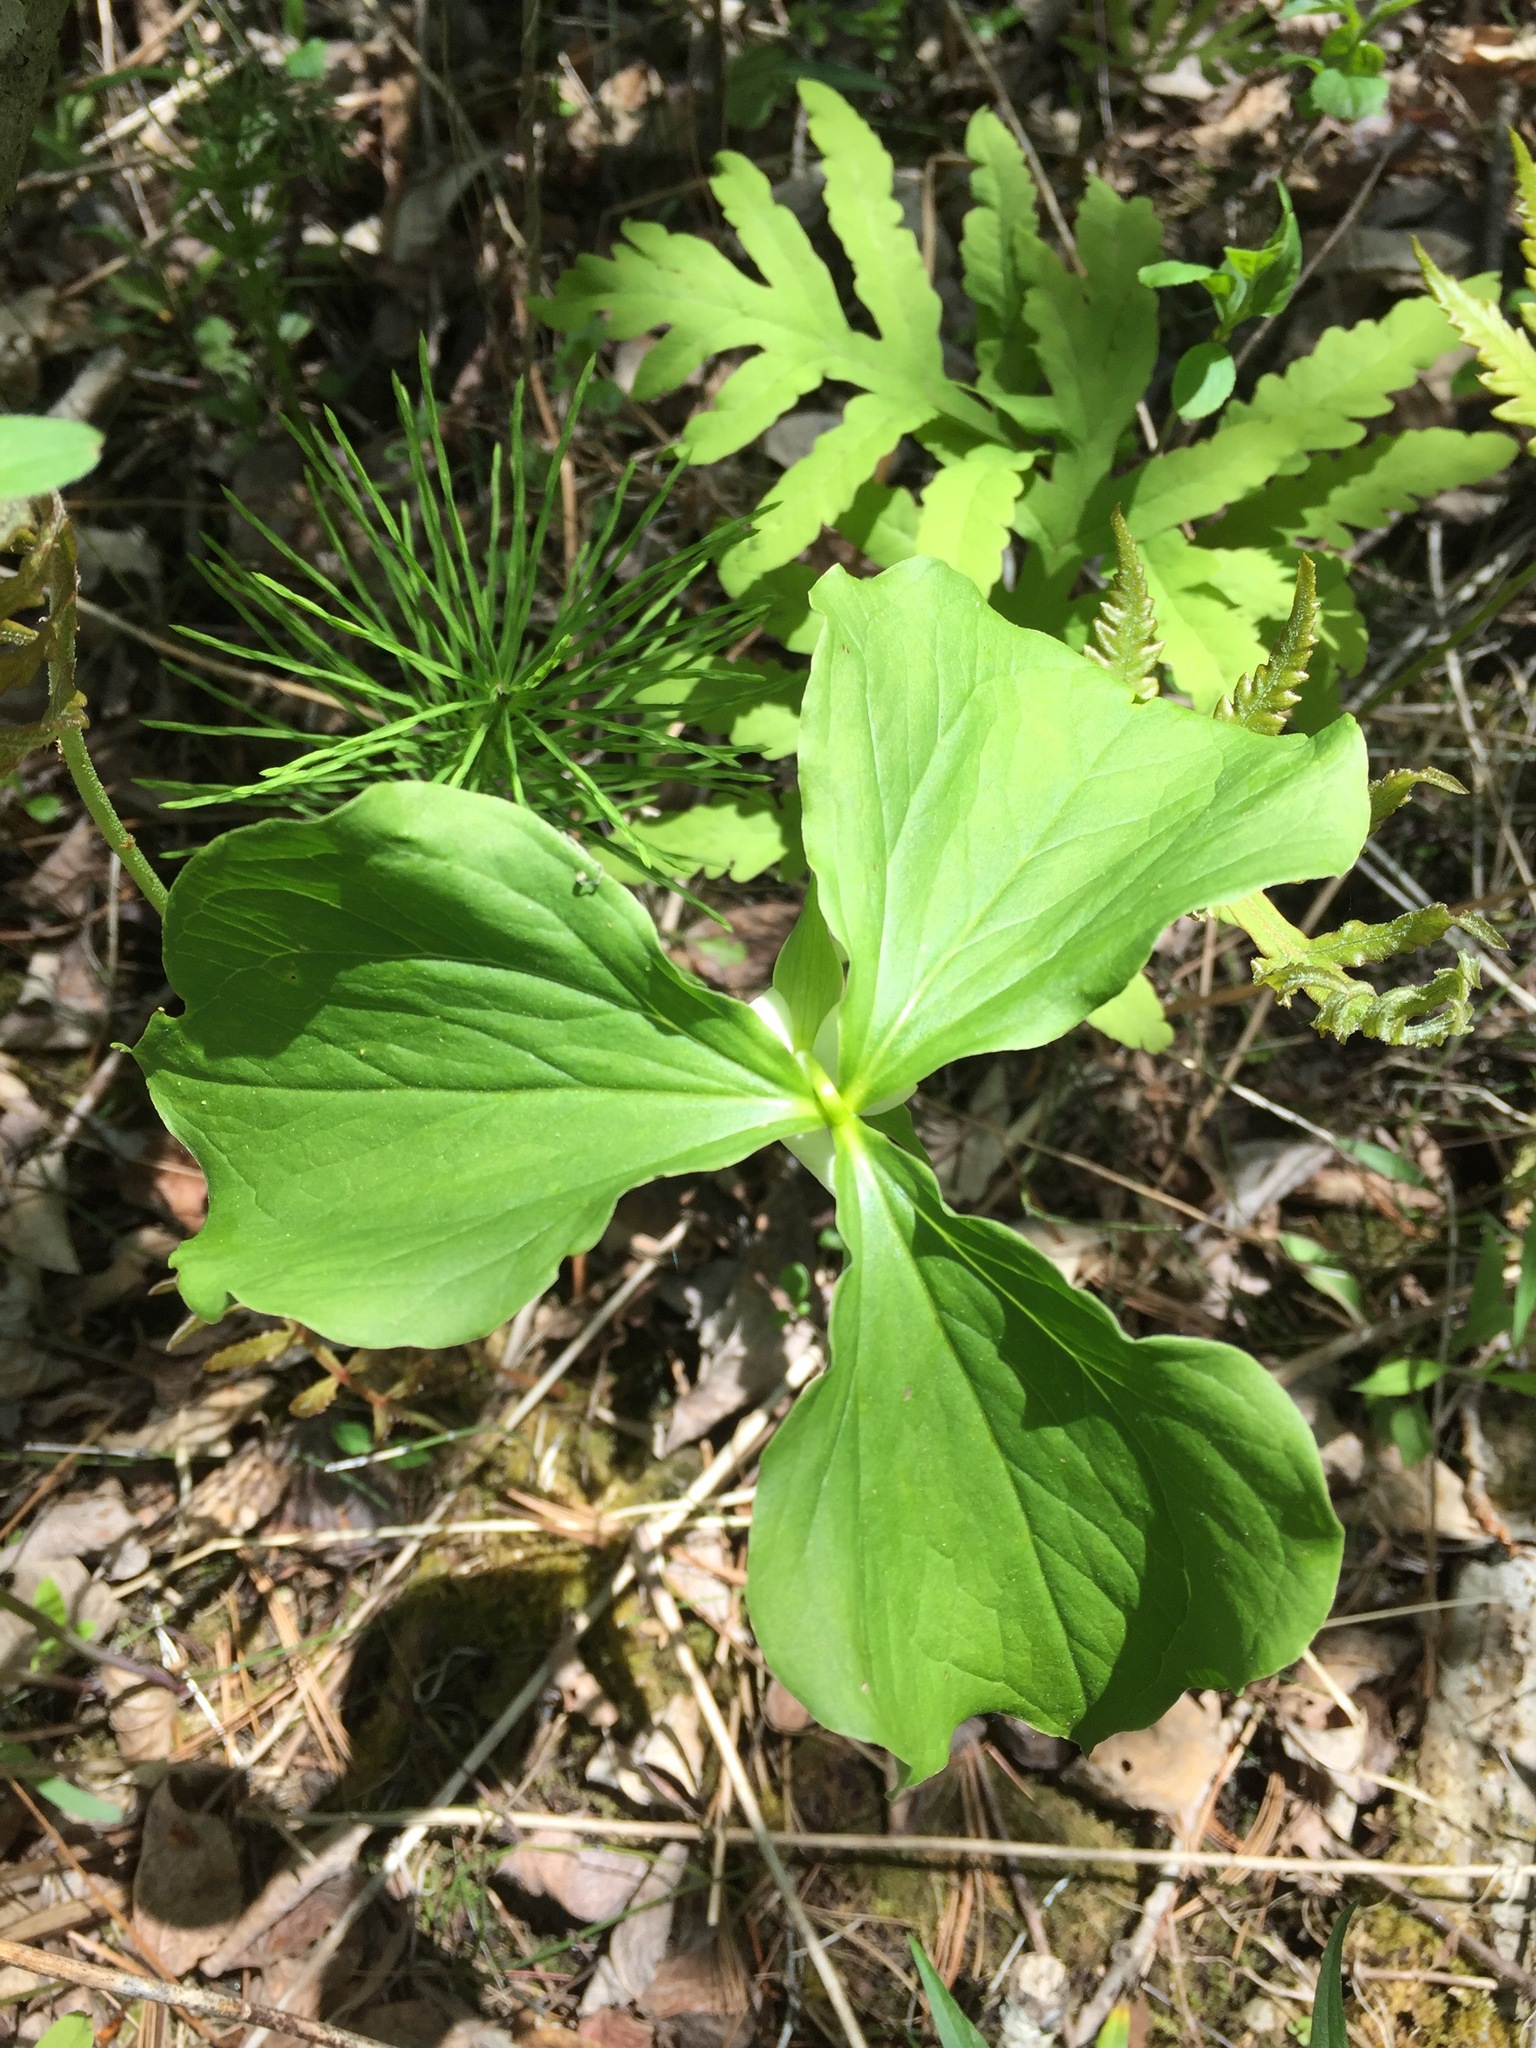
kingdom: Plantae
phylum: Tracheophyta
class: Liliopsida
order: Liliales
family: Melanthiaceae
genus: Trillium
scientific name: Trillium cernuum
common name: Nodding trillium
